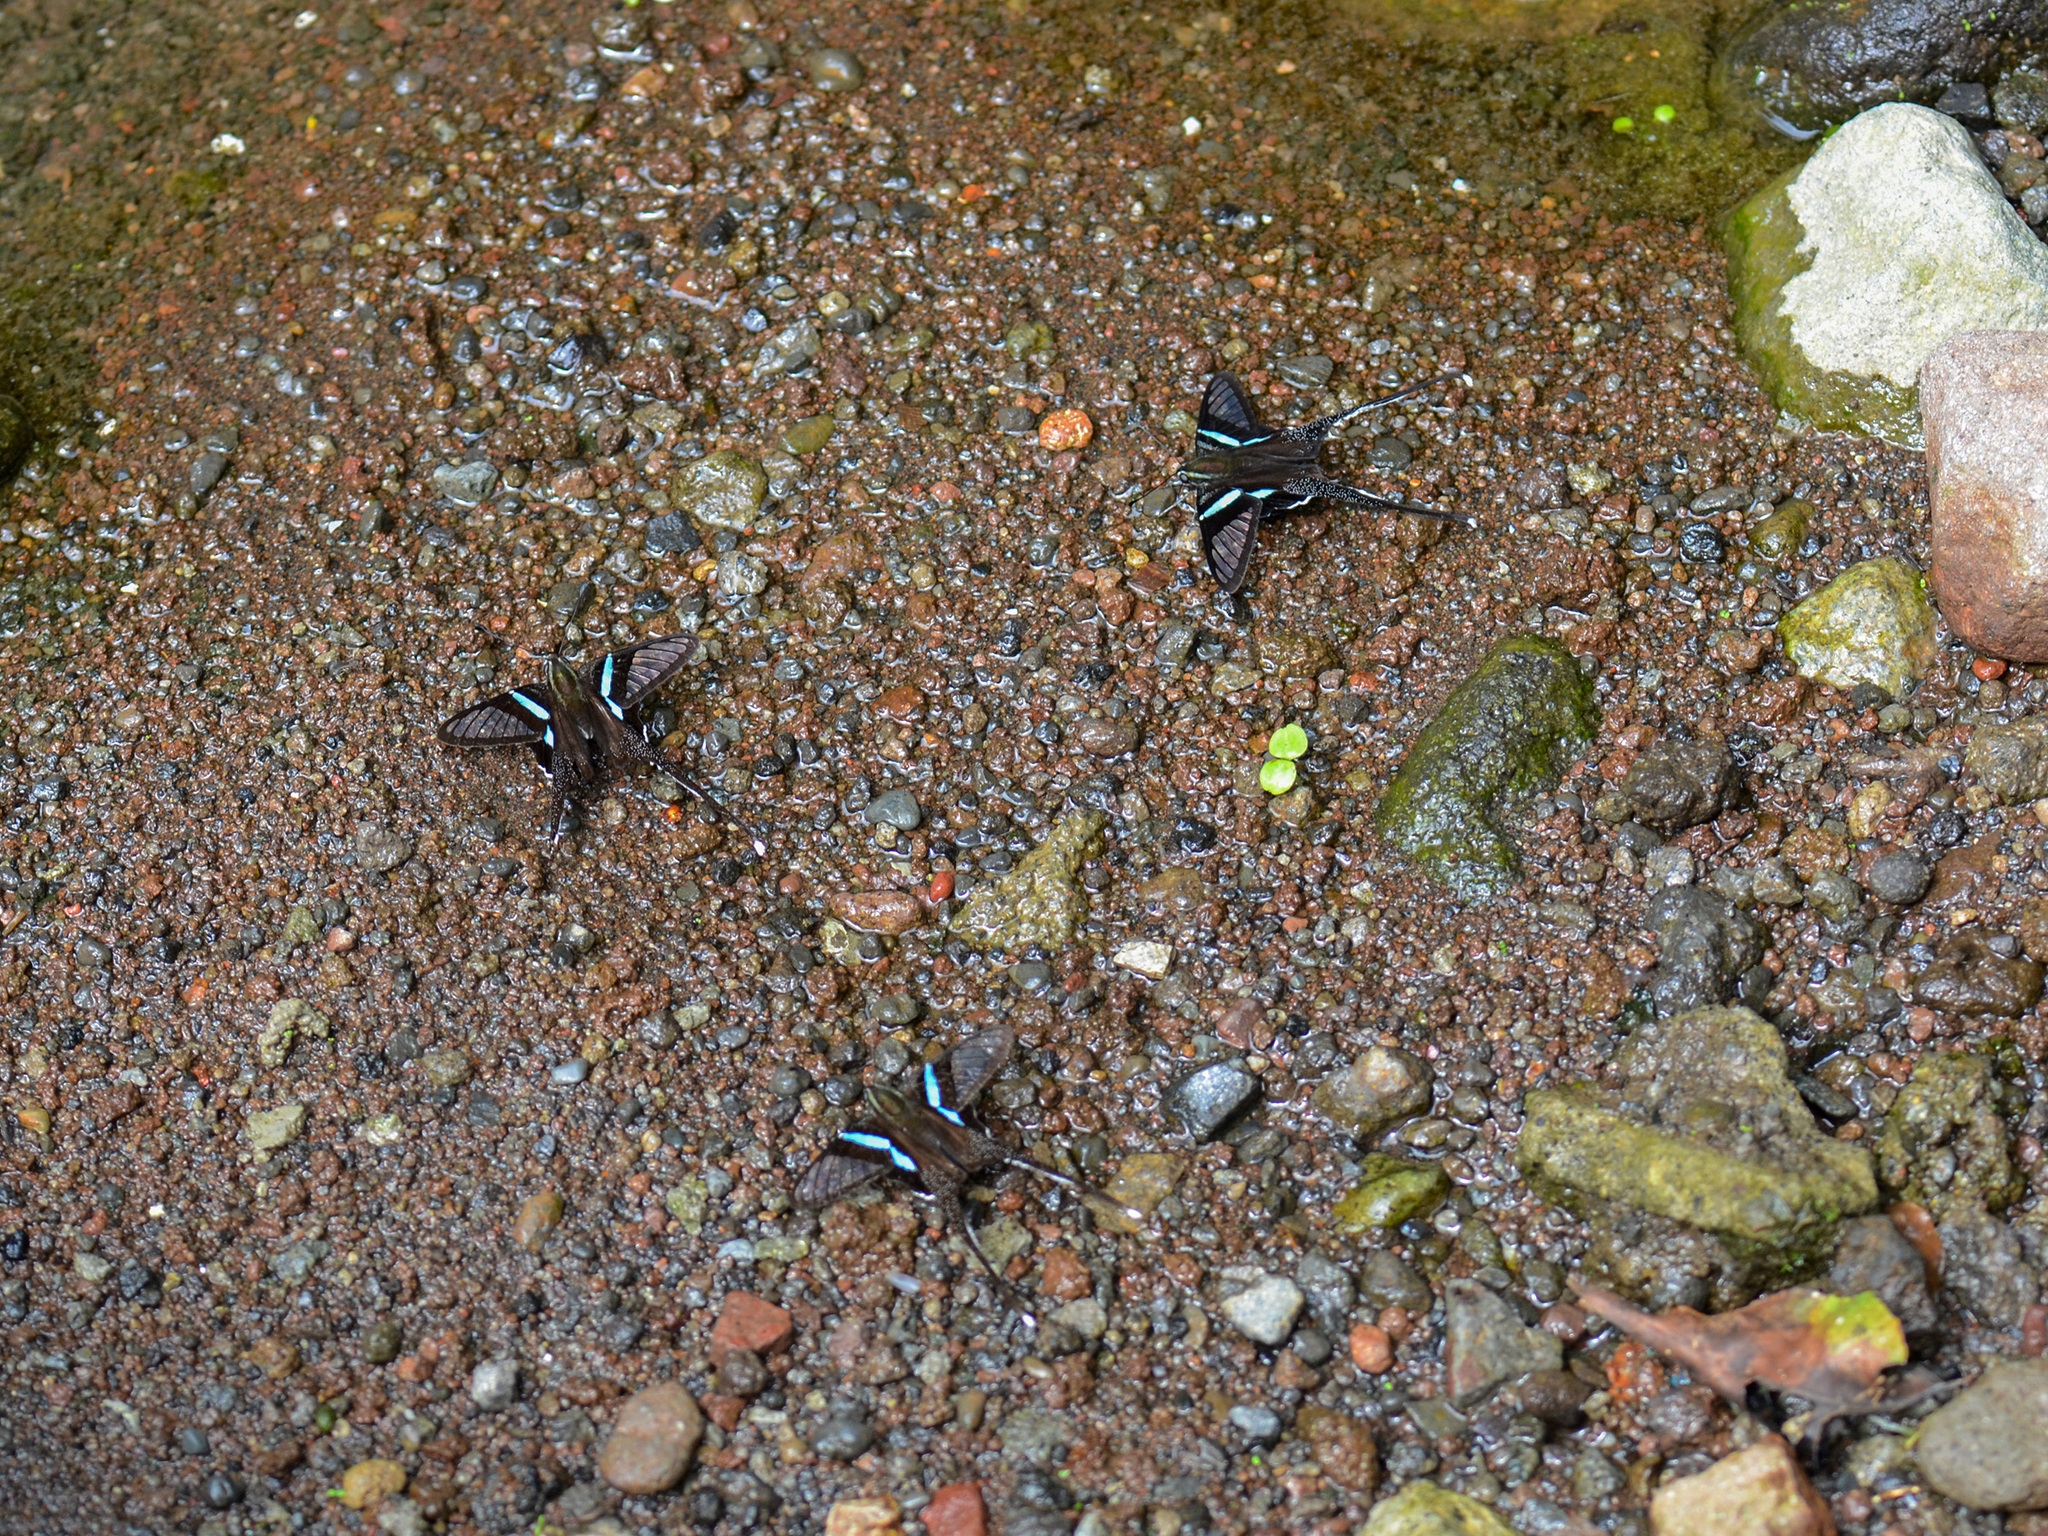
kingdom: Animalia
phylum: Arthropoda
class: Insecta
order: Lepidoptera
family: Papilionidae
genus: Lamproptera
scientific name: Lamproptera meges
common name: Green dragontail
